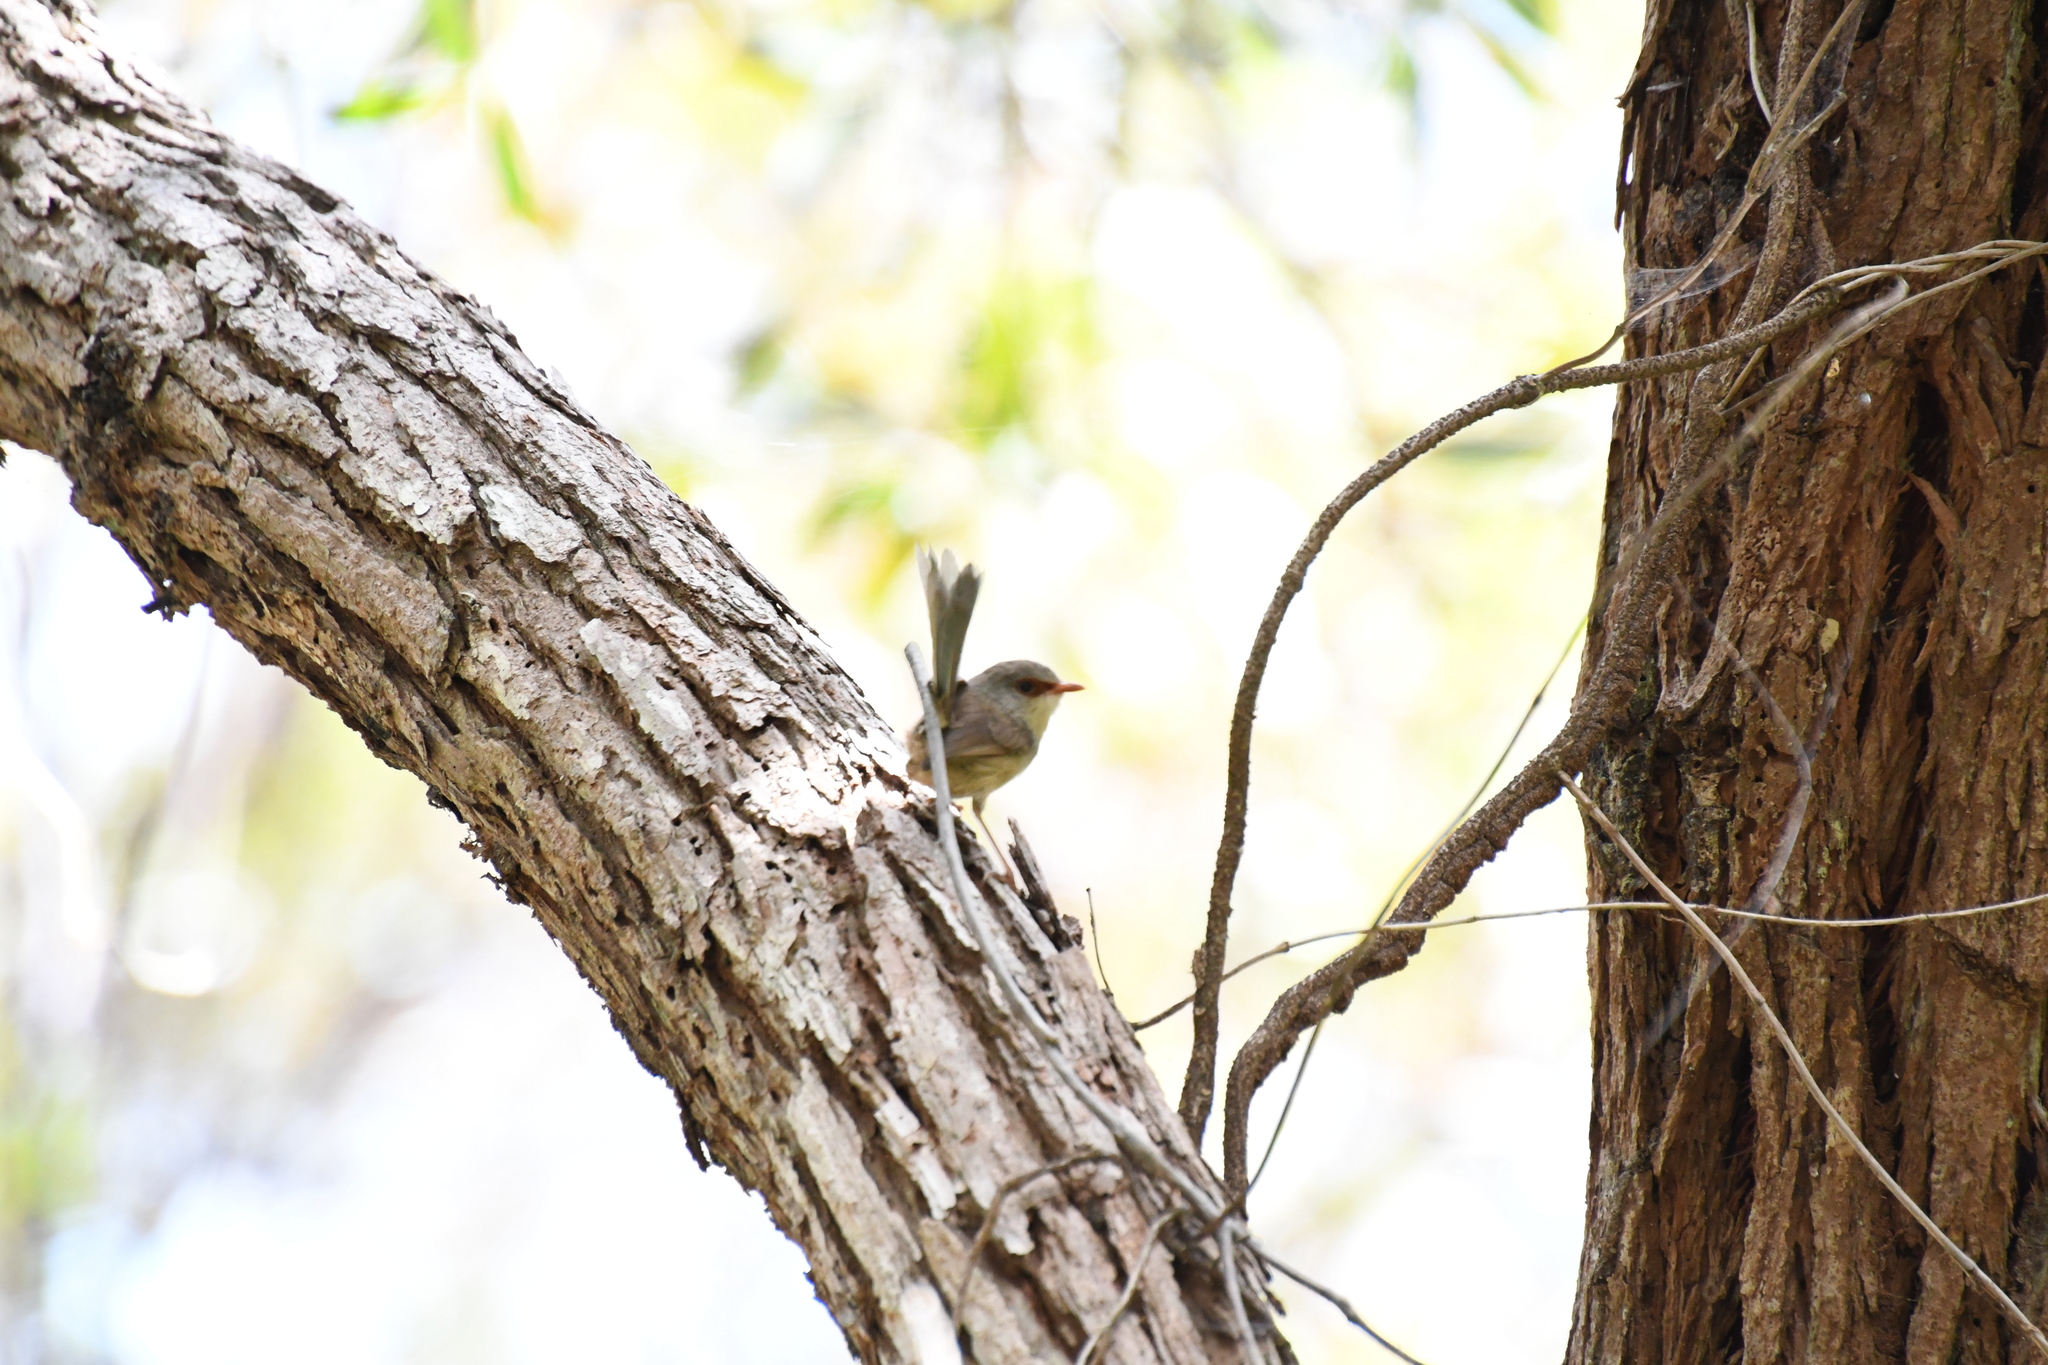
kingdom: Animalia
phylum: Chordata
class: Aves
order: Passeriformes
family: Maluridae
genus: Malurus
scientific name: Malurus lamberti
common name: Variegated fairywren
